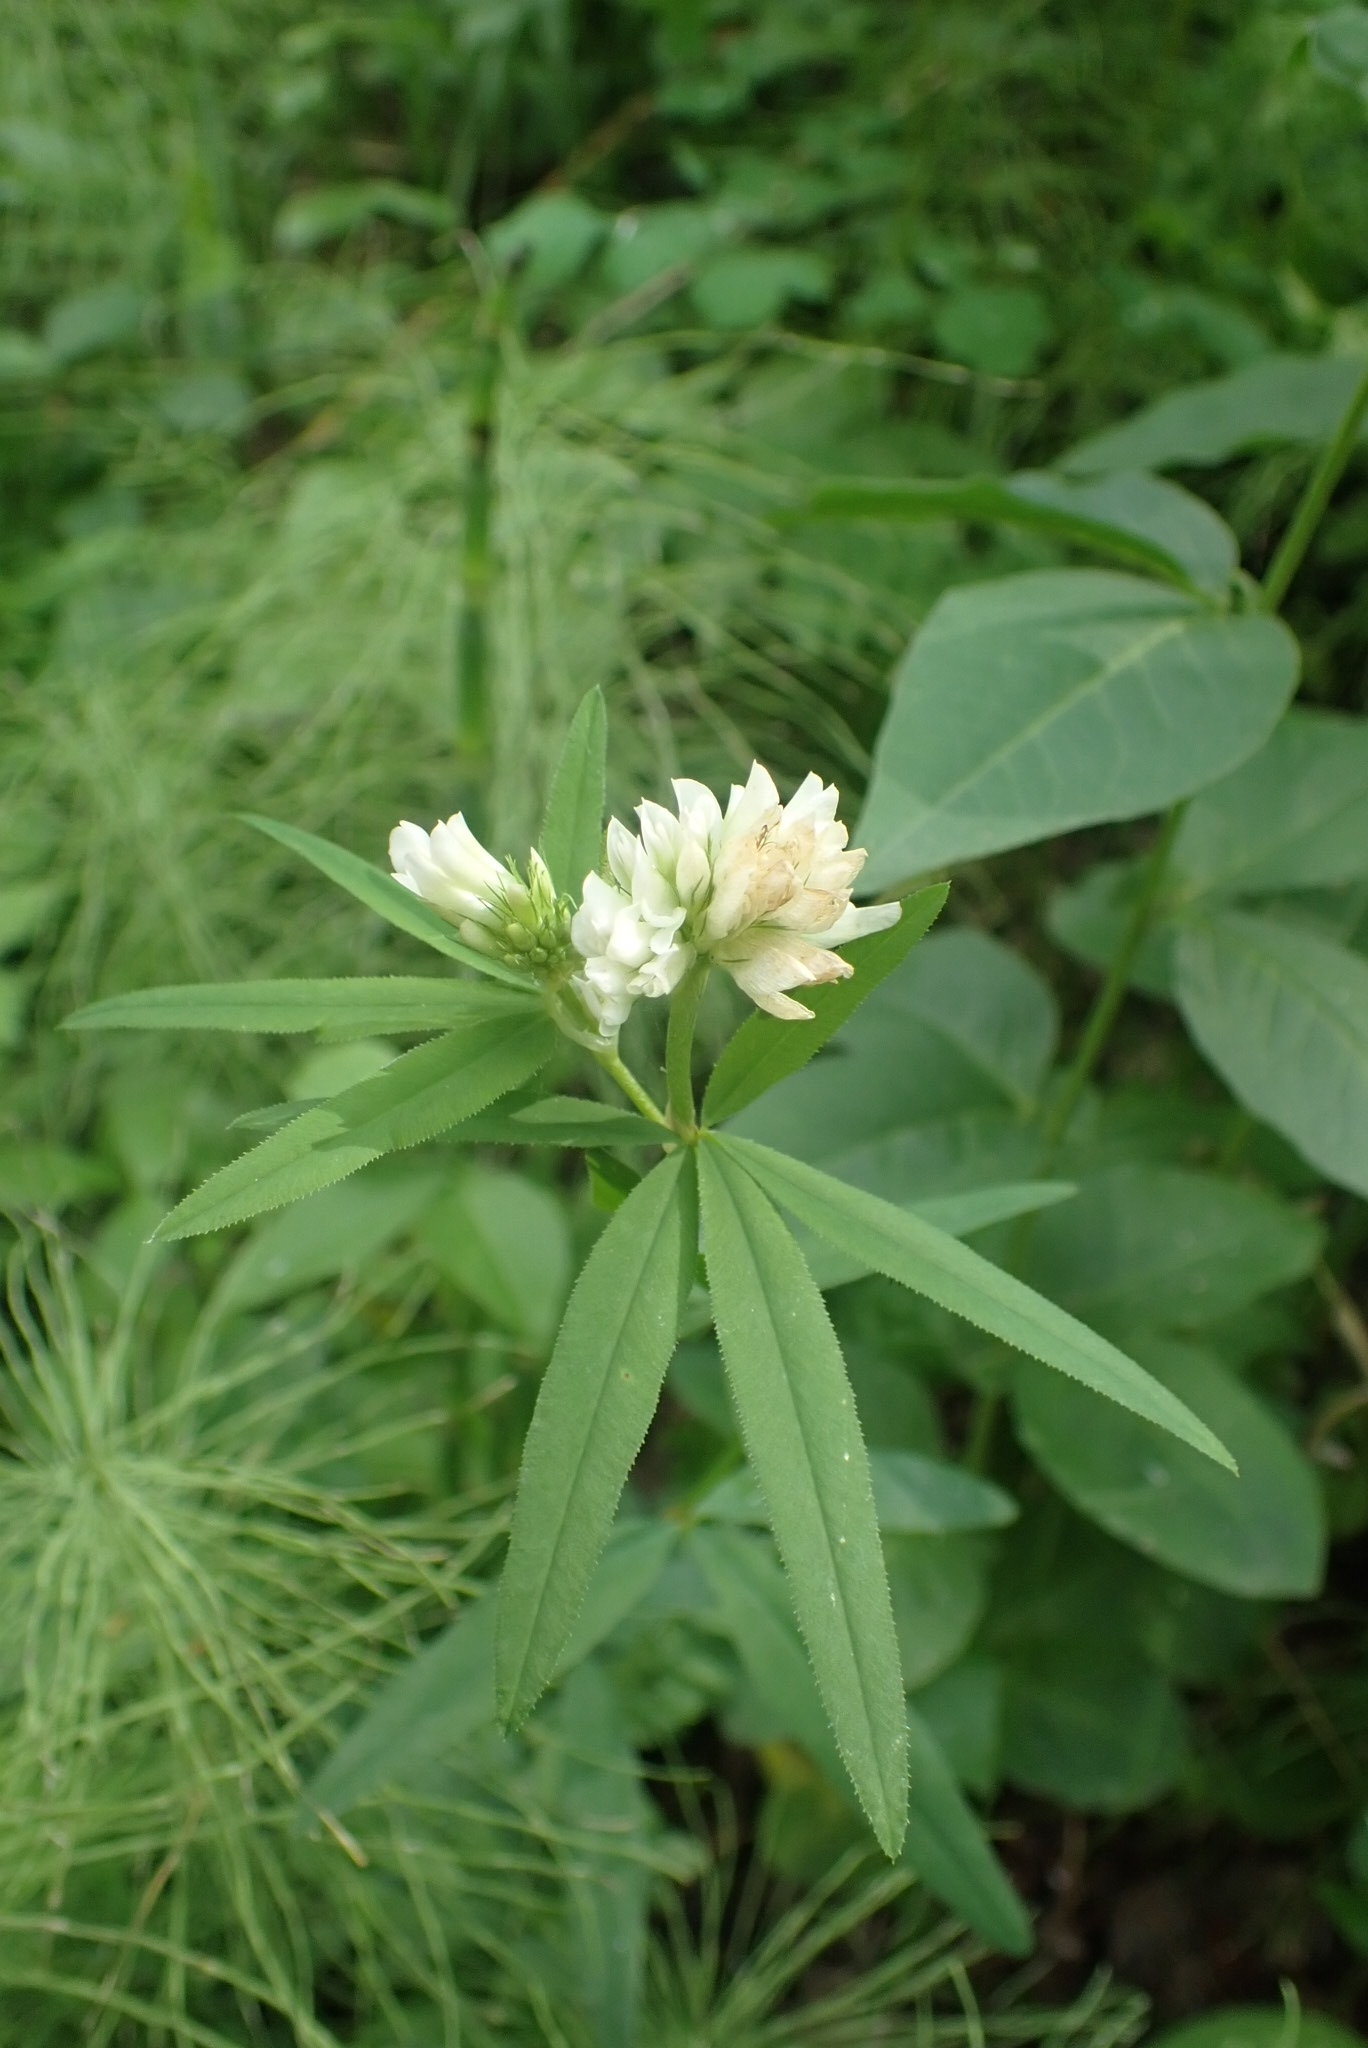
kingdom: Plantae
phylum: Tracheophyta
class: Magnoliopsida
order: Fabales
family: Fabaceae
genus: Trifolium
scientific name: Trifolium lupinaster
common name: Lupine clover
